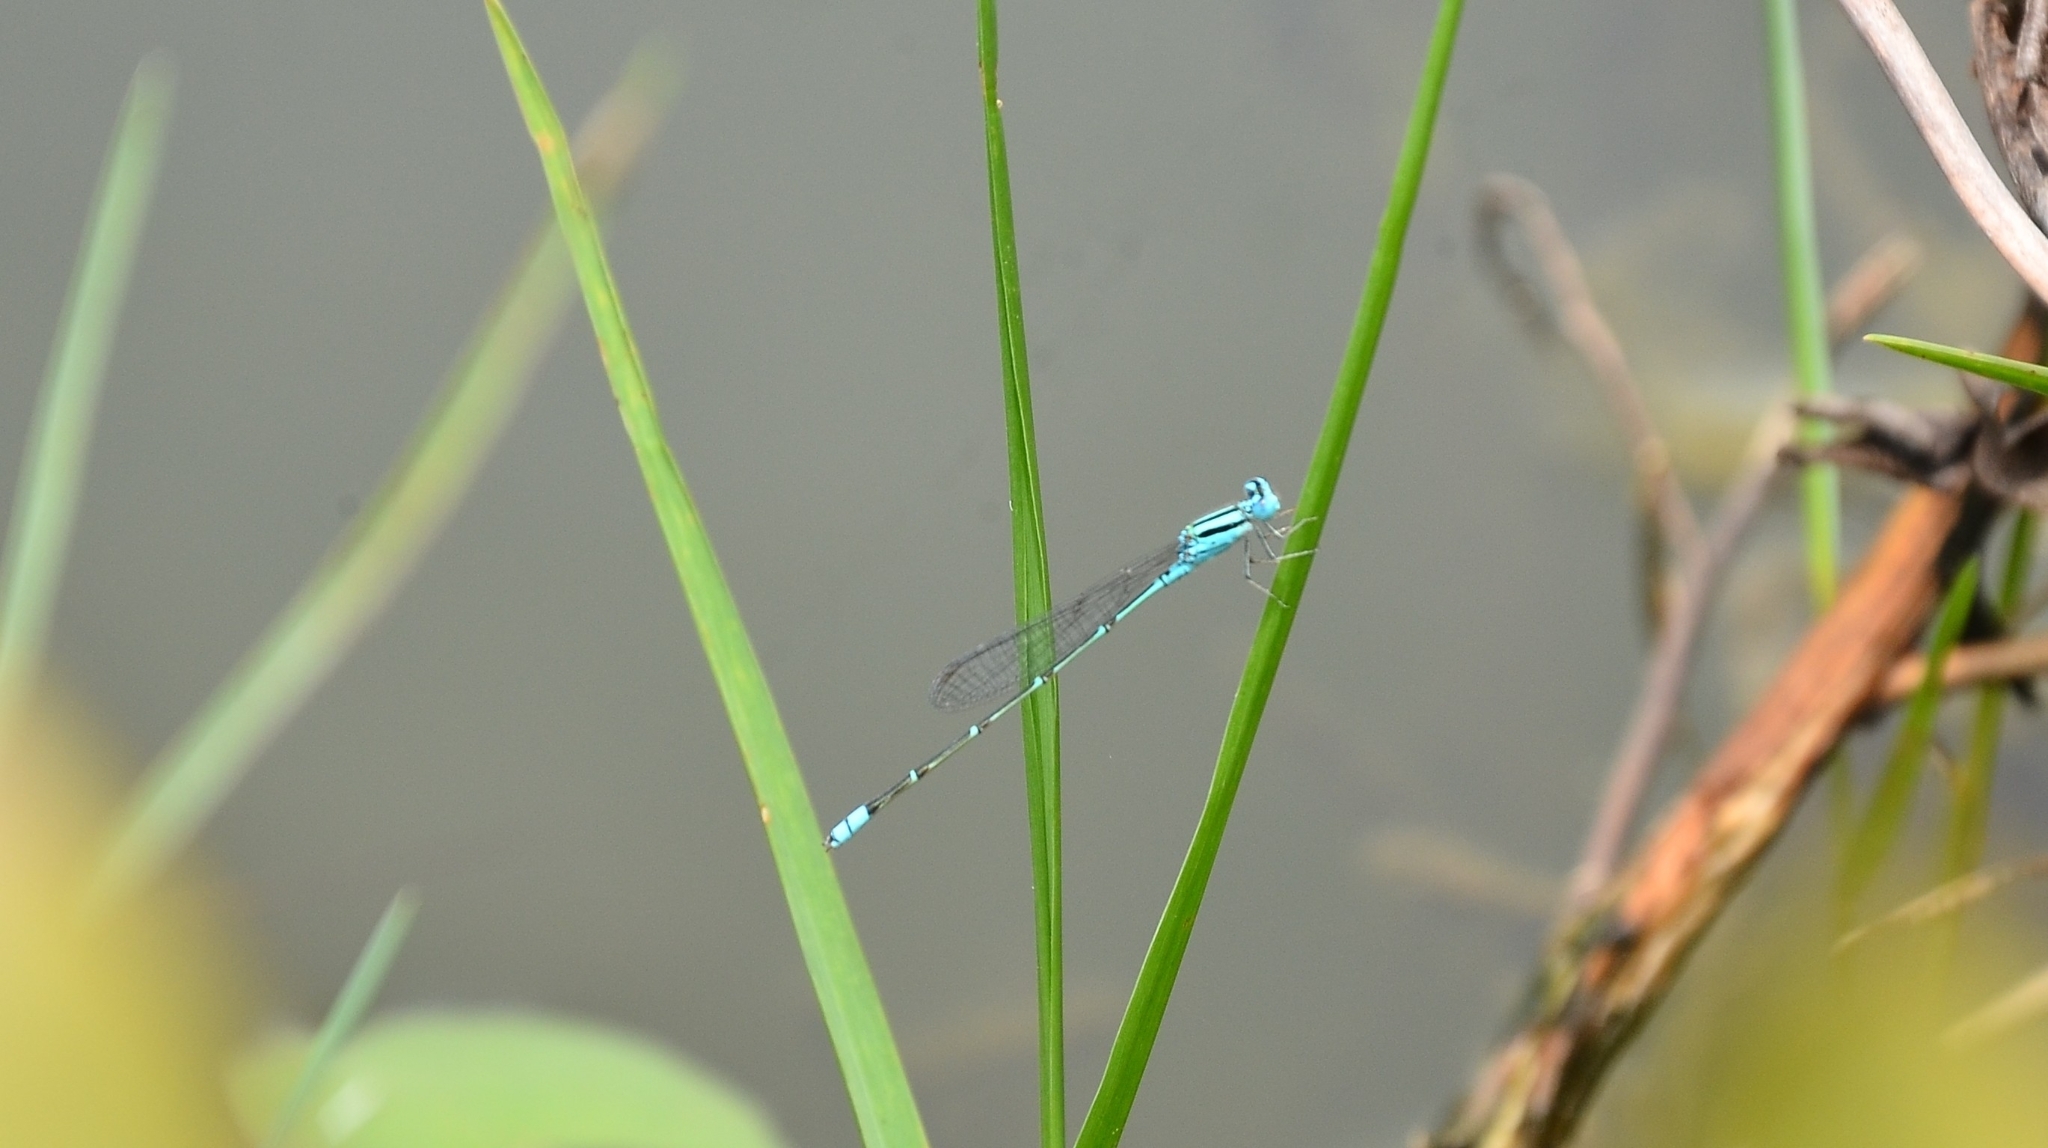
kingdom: Animalia
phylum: Arthropoda
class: Insecta
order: Odonata
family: Coenagrionidae
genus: Pseudagrion
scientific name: Pseudagrion microcephalum
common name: Blue riverdamsel
